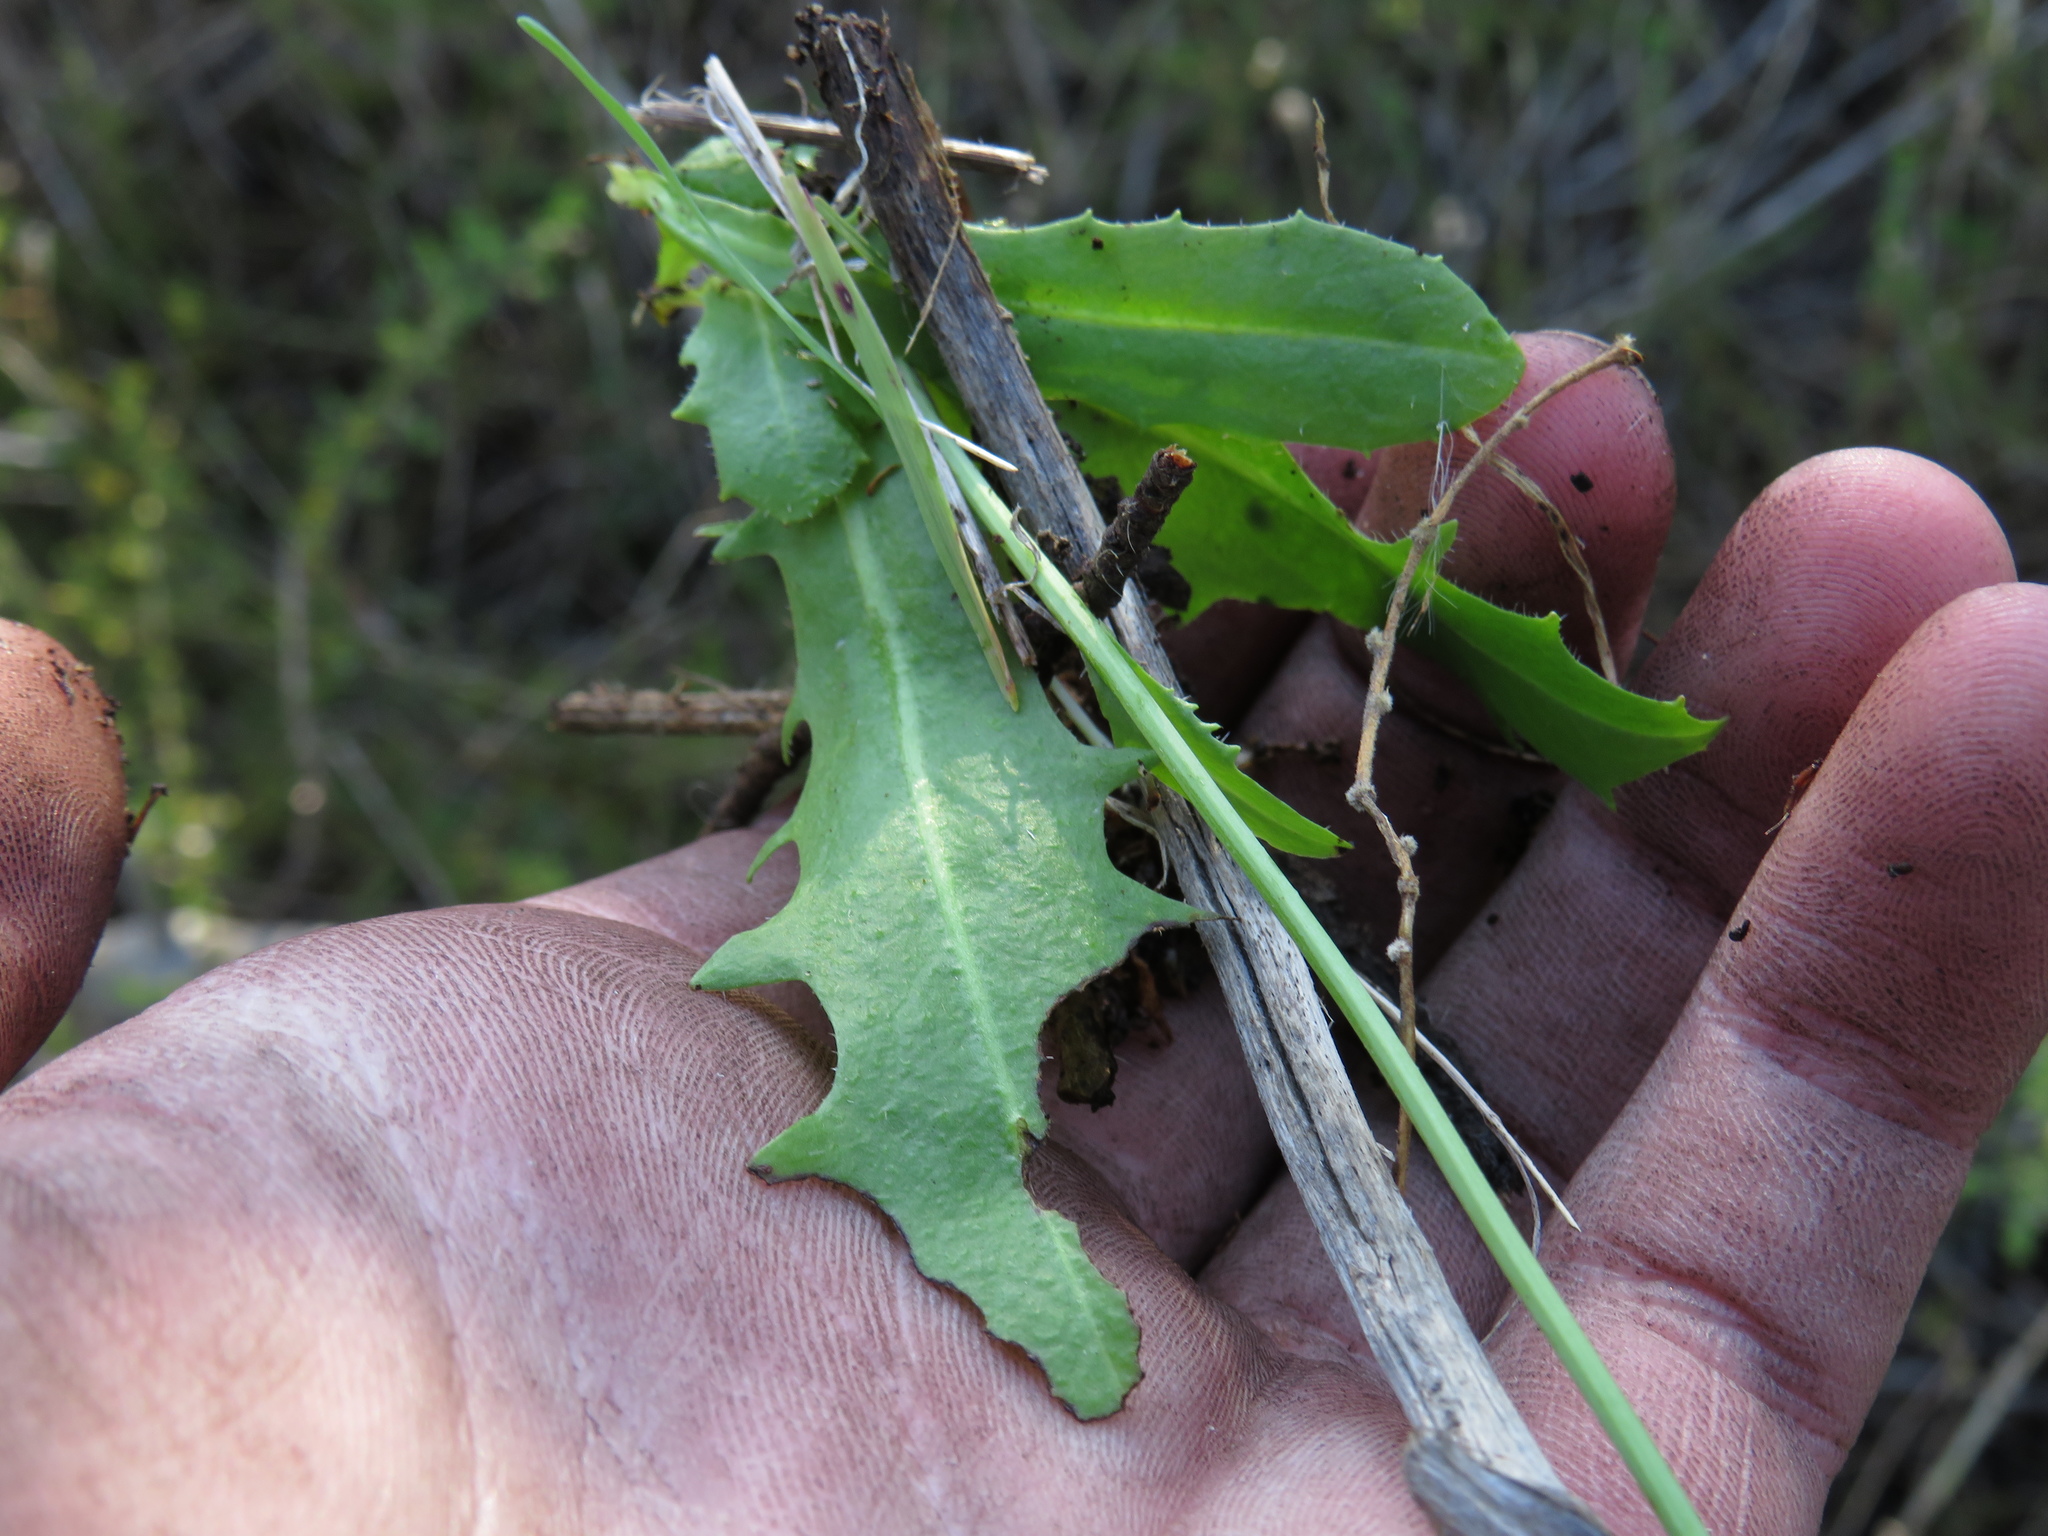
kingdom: Plantae
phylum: Tracheophyta
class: Magnoliopsida
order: Asterales
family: Asteraceae
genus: Hypochaeris
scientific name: Hypochaeris radicata
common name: Flatweed
